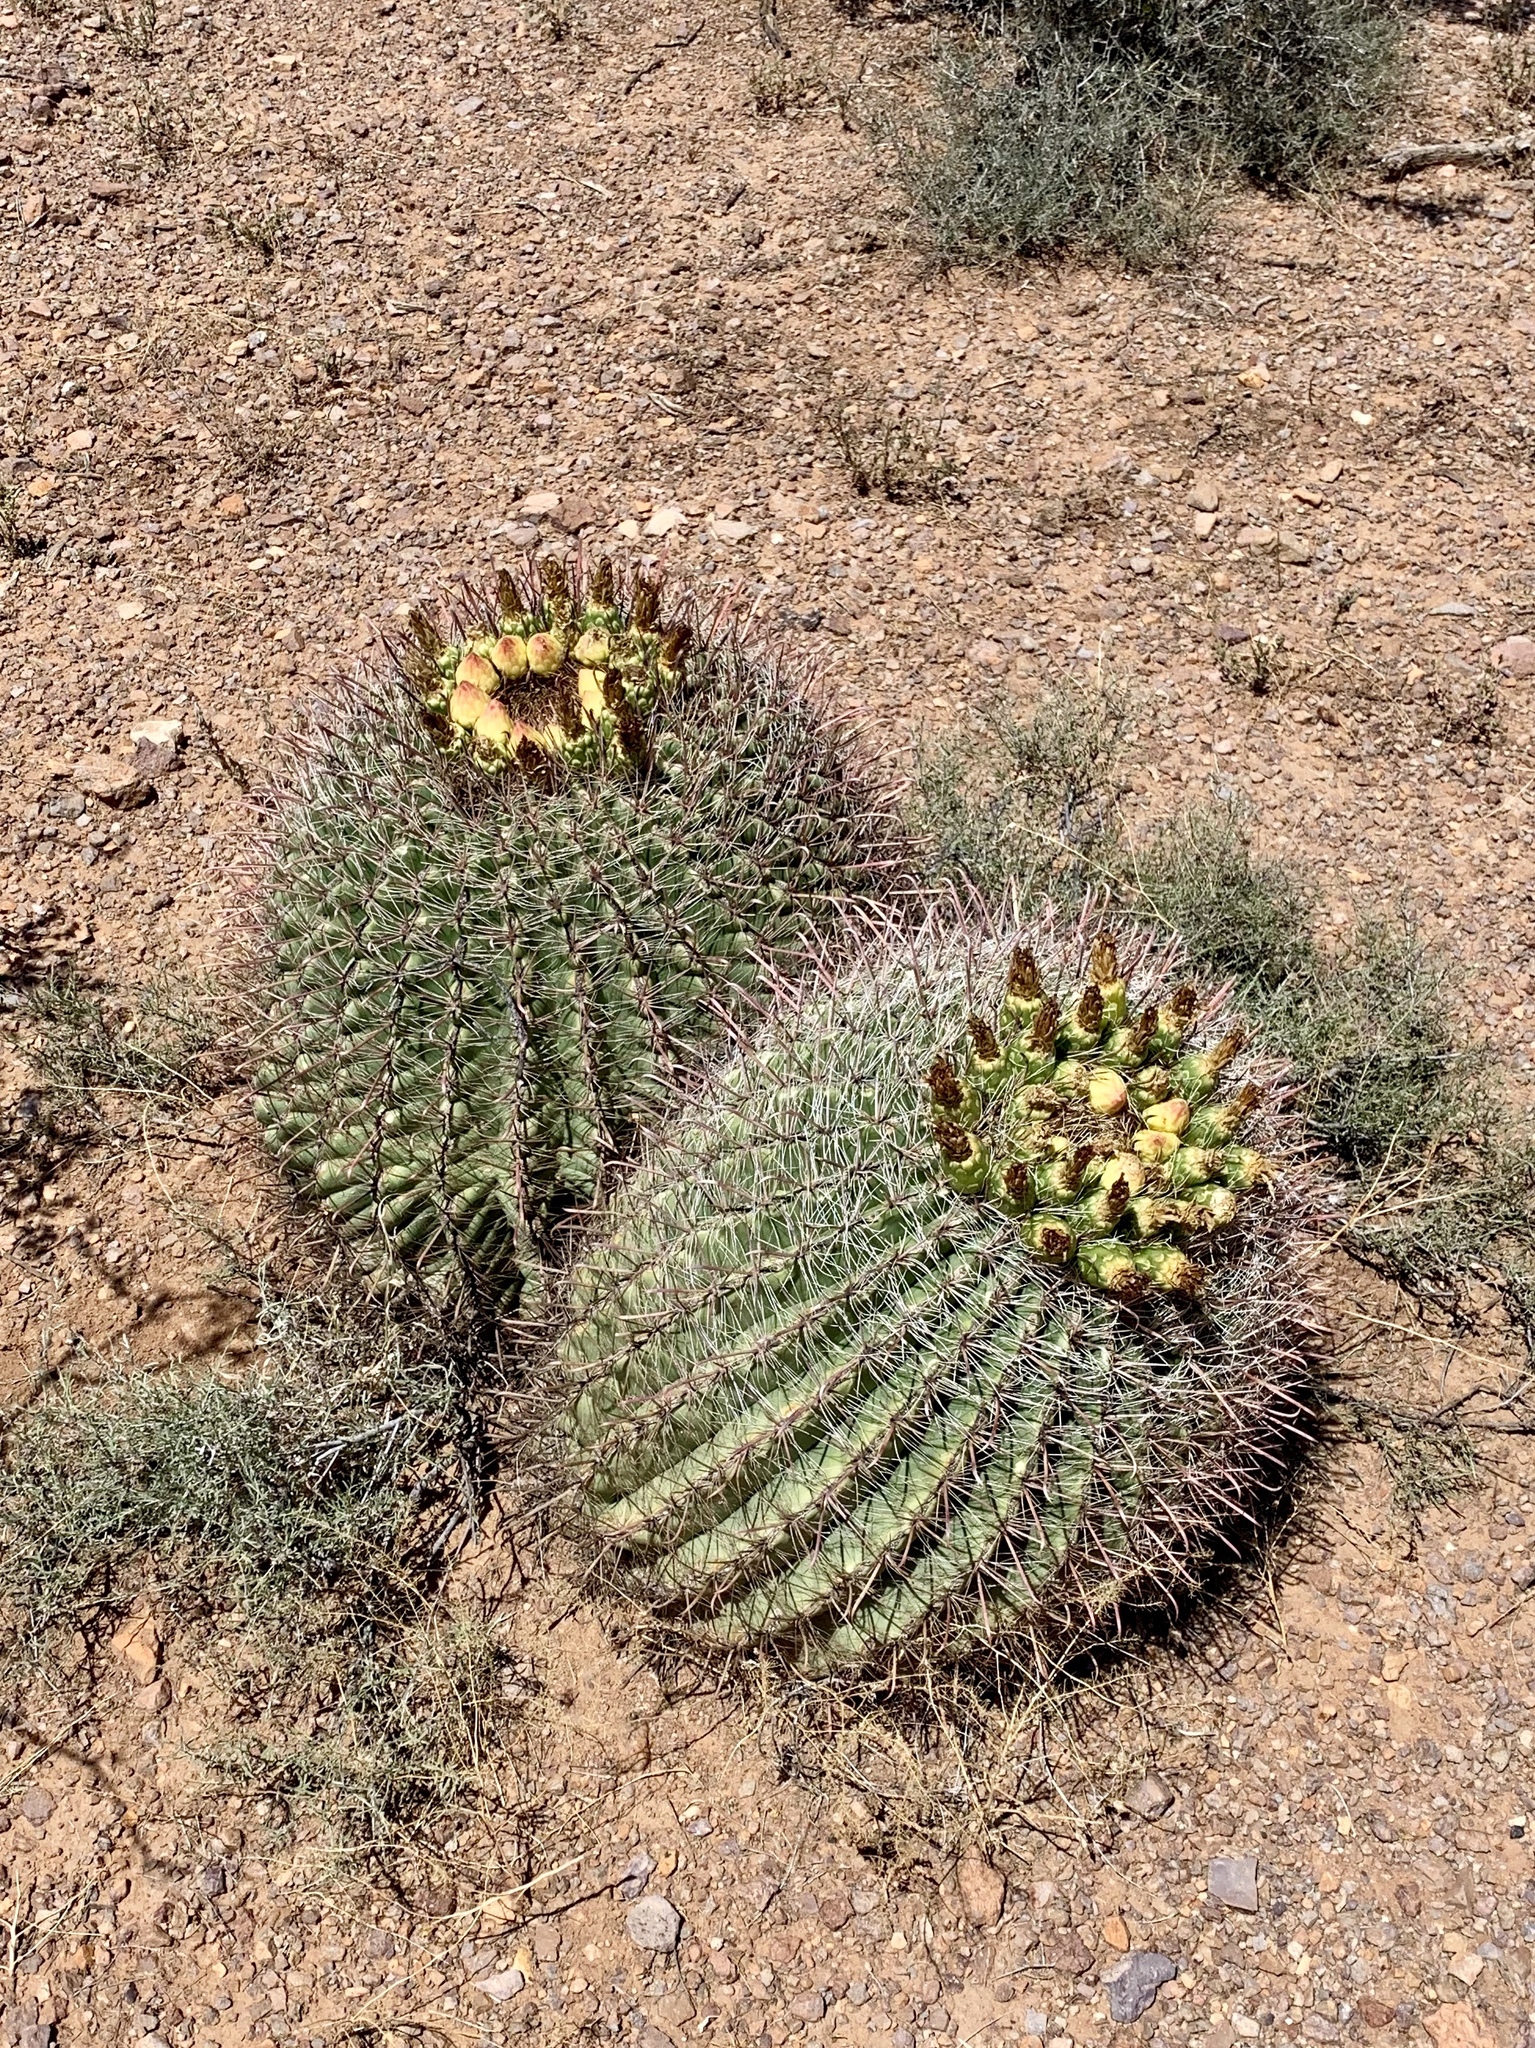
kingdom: Plantae
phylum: Tracheophyta
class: Magnoliopsida
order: Caryophyllales
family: Cactaceae
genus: Ferocactus
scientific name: Ferocactus wislizeni
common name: Candy barrel cactus
